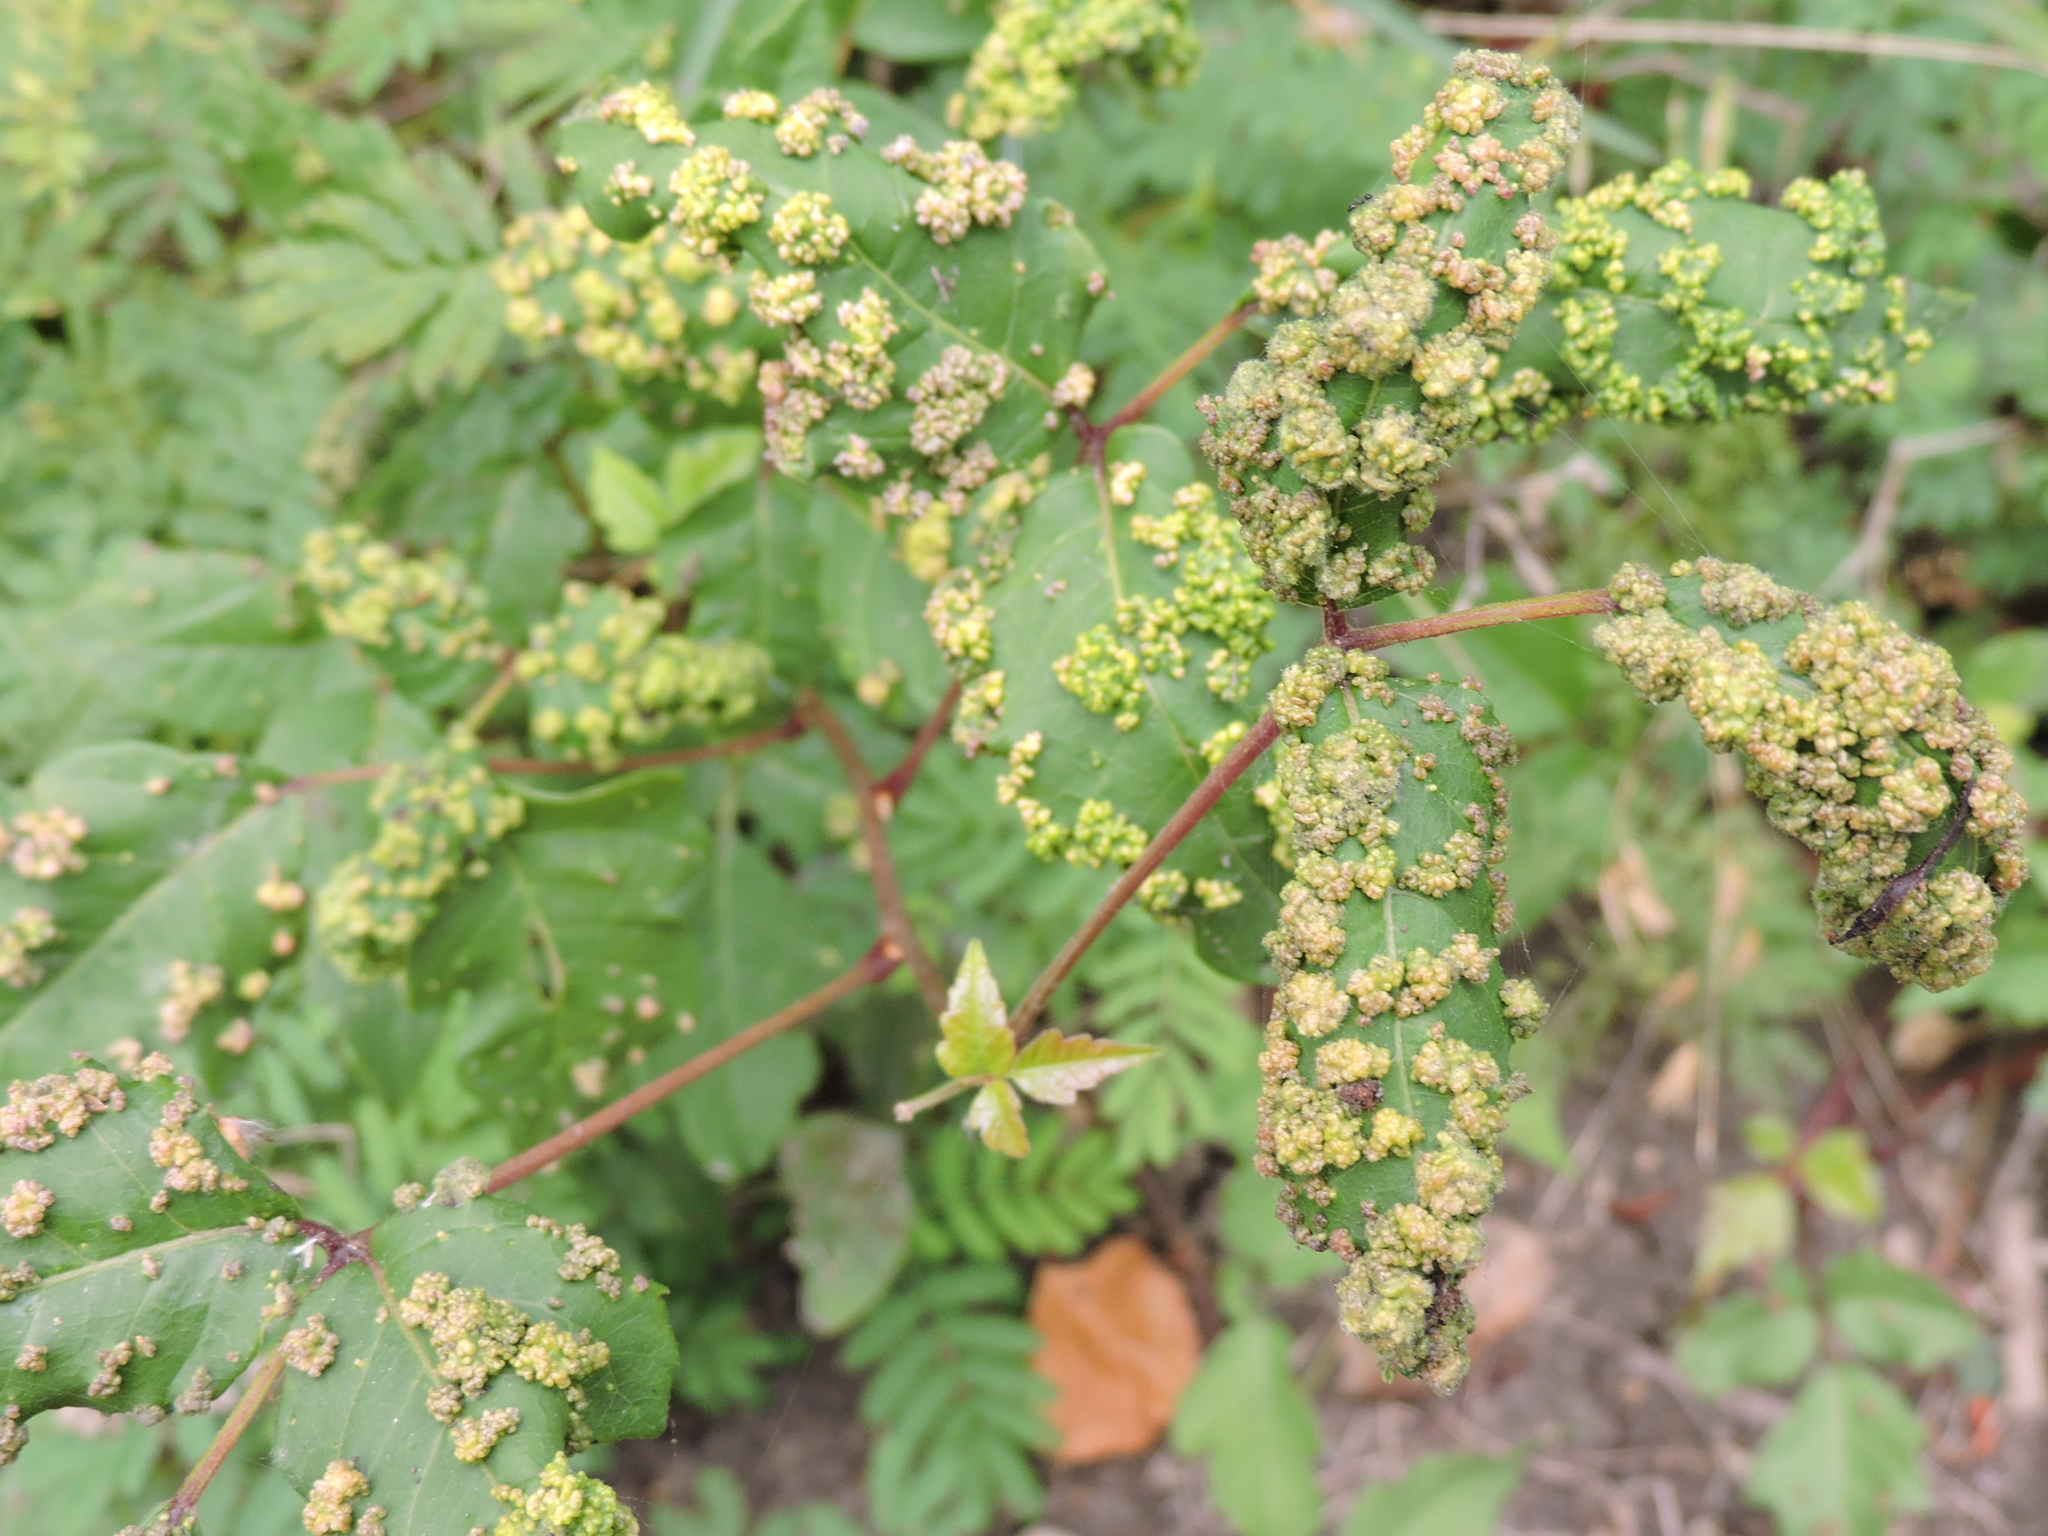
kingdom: Animalia
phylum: Arthropoda
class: Arachnida
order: Trombidiformes
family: Eriophyidae
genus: Aculops
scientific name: Aculops
